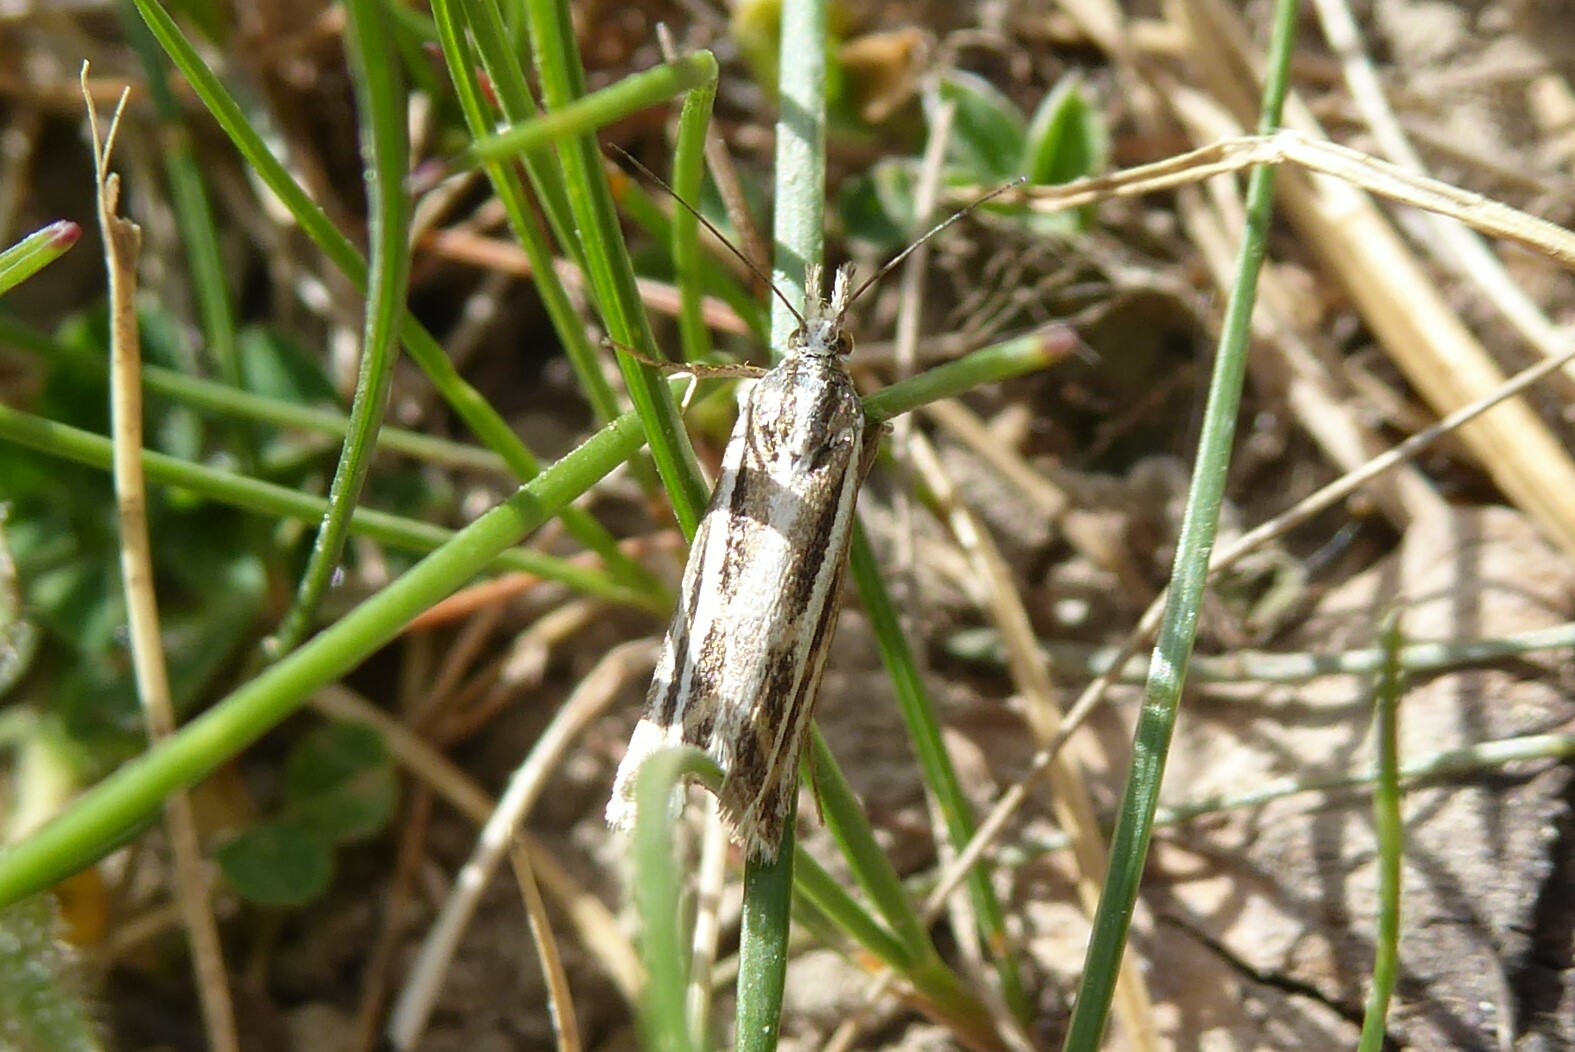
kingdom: Animalia
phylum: Arthropoda
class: Insecta
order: Lepidoptera
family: Crambidae
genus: Orocrambus
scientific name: Orocrambus corruptus
